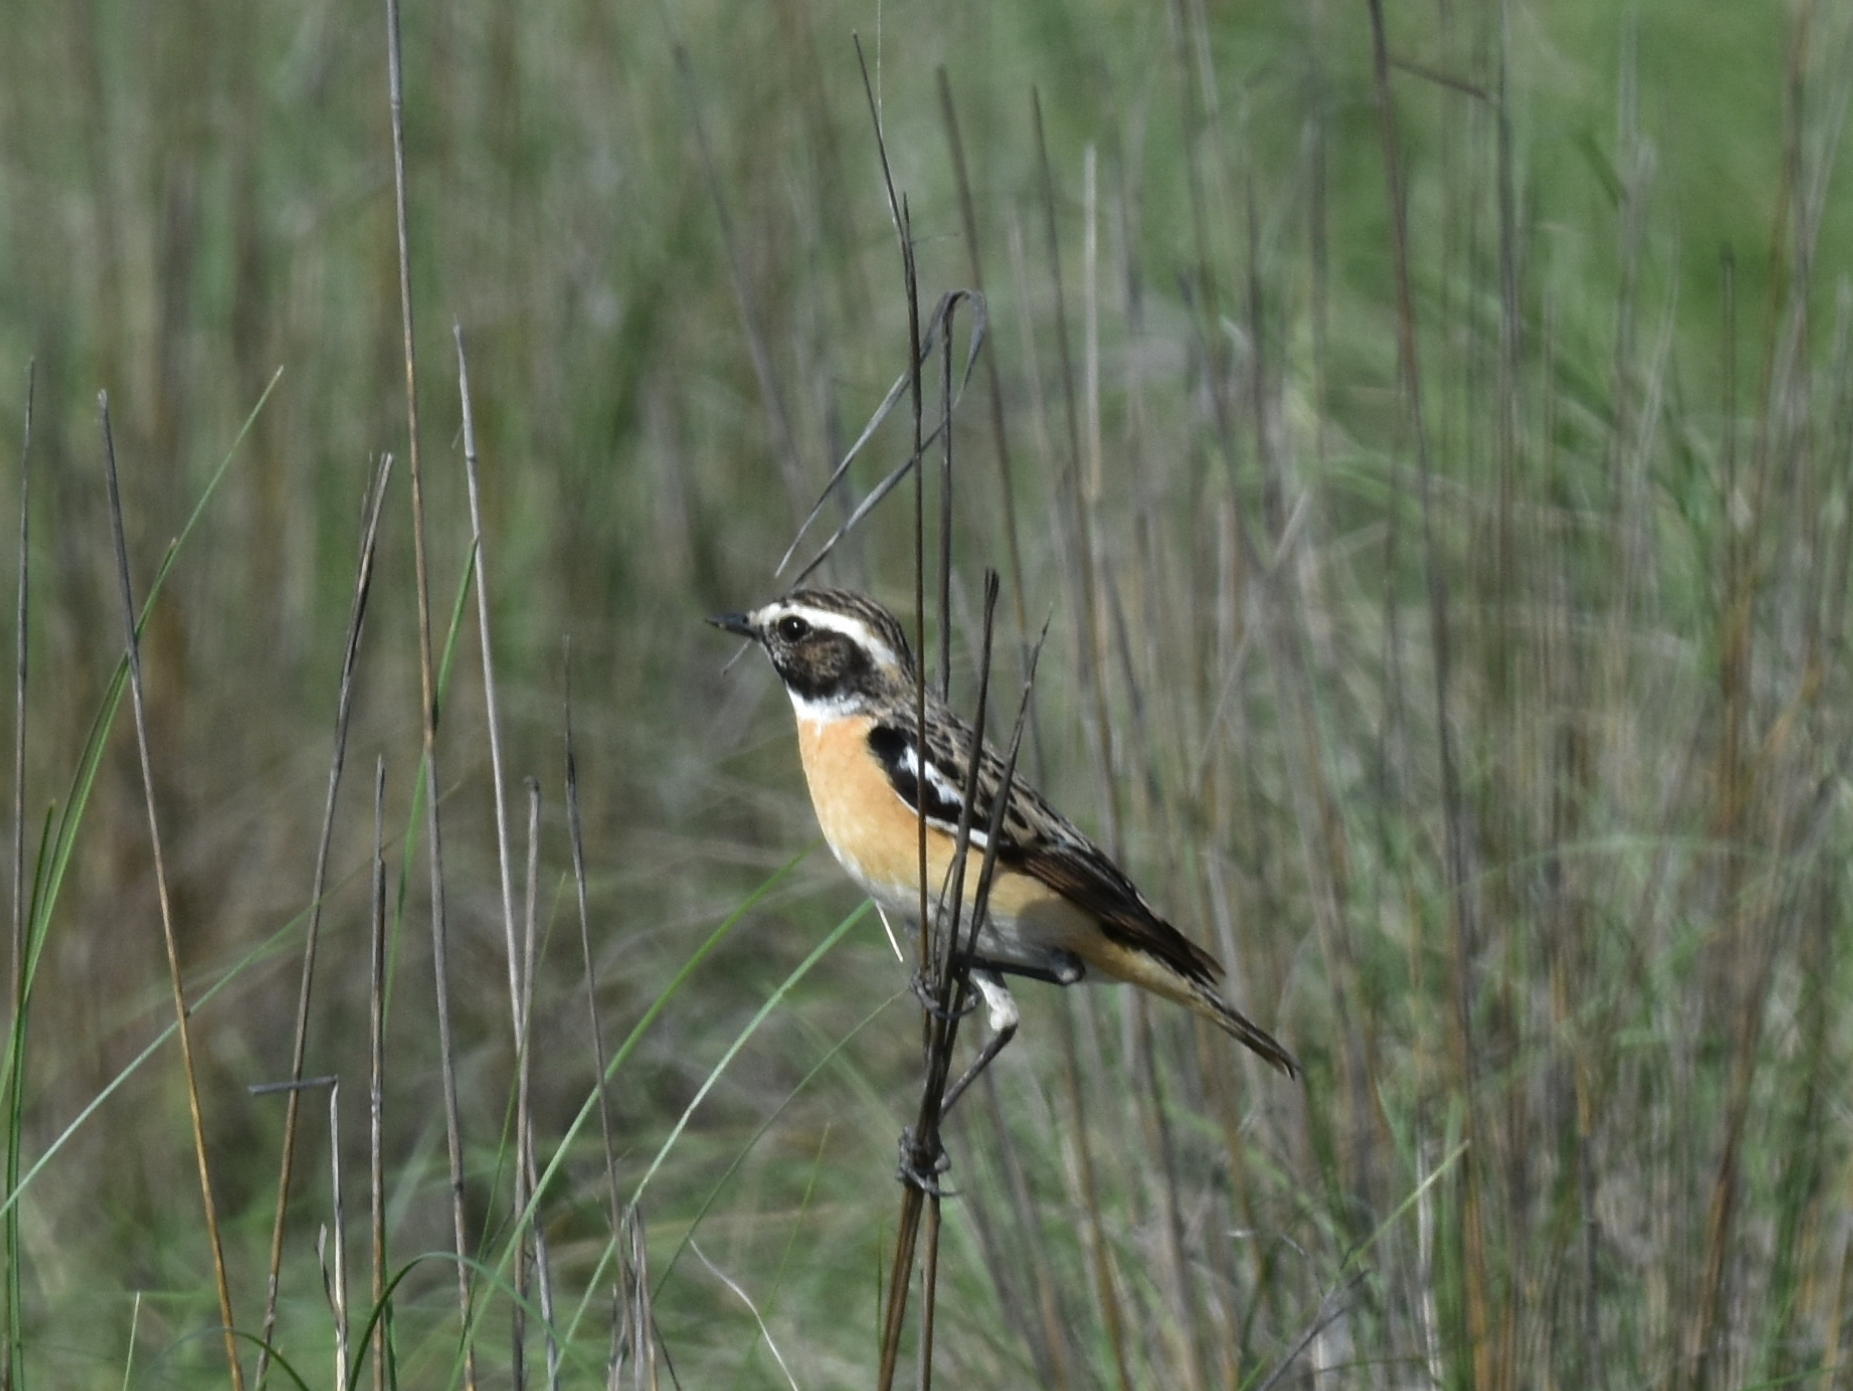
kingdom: Animalia
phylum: Chordata
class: Aves
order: Passeriformes
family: Muscicapidae
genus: Saxicola
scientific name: Saxicola rubetra
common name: Whinchat
